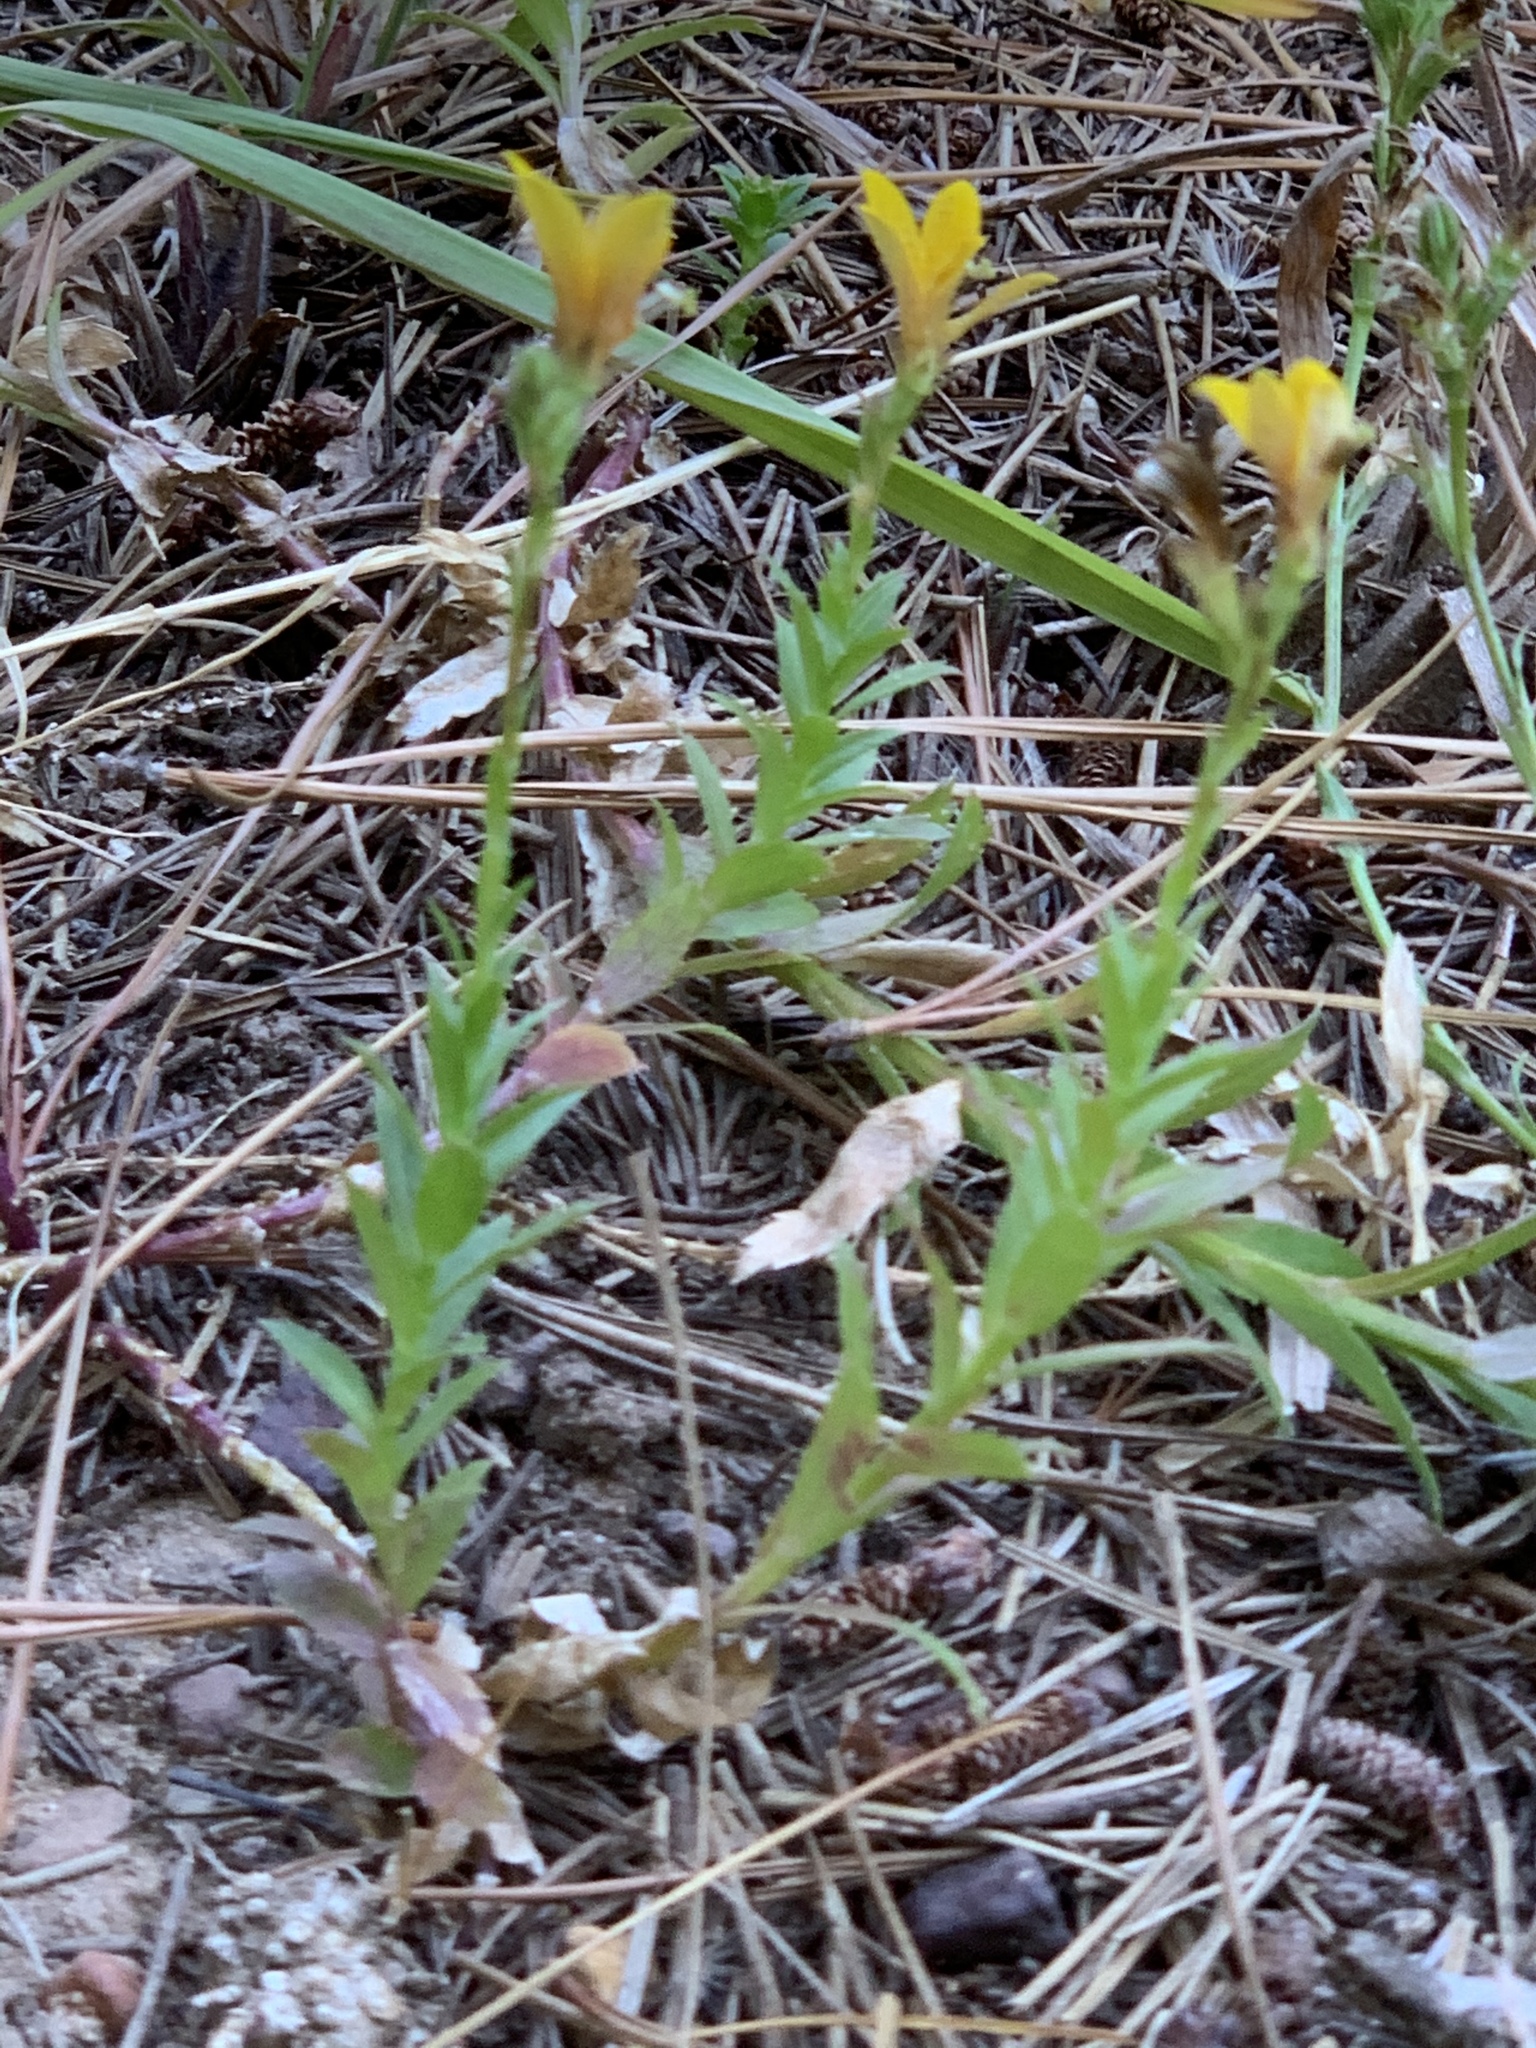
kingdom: Plantae
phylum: Tracheophyta
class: Magnoliopsida
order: Asterales
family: Campanulaceae
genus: Monopsis
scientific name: Monopsis lutea
